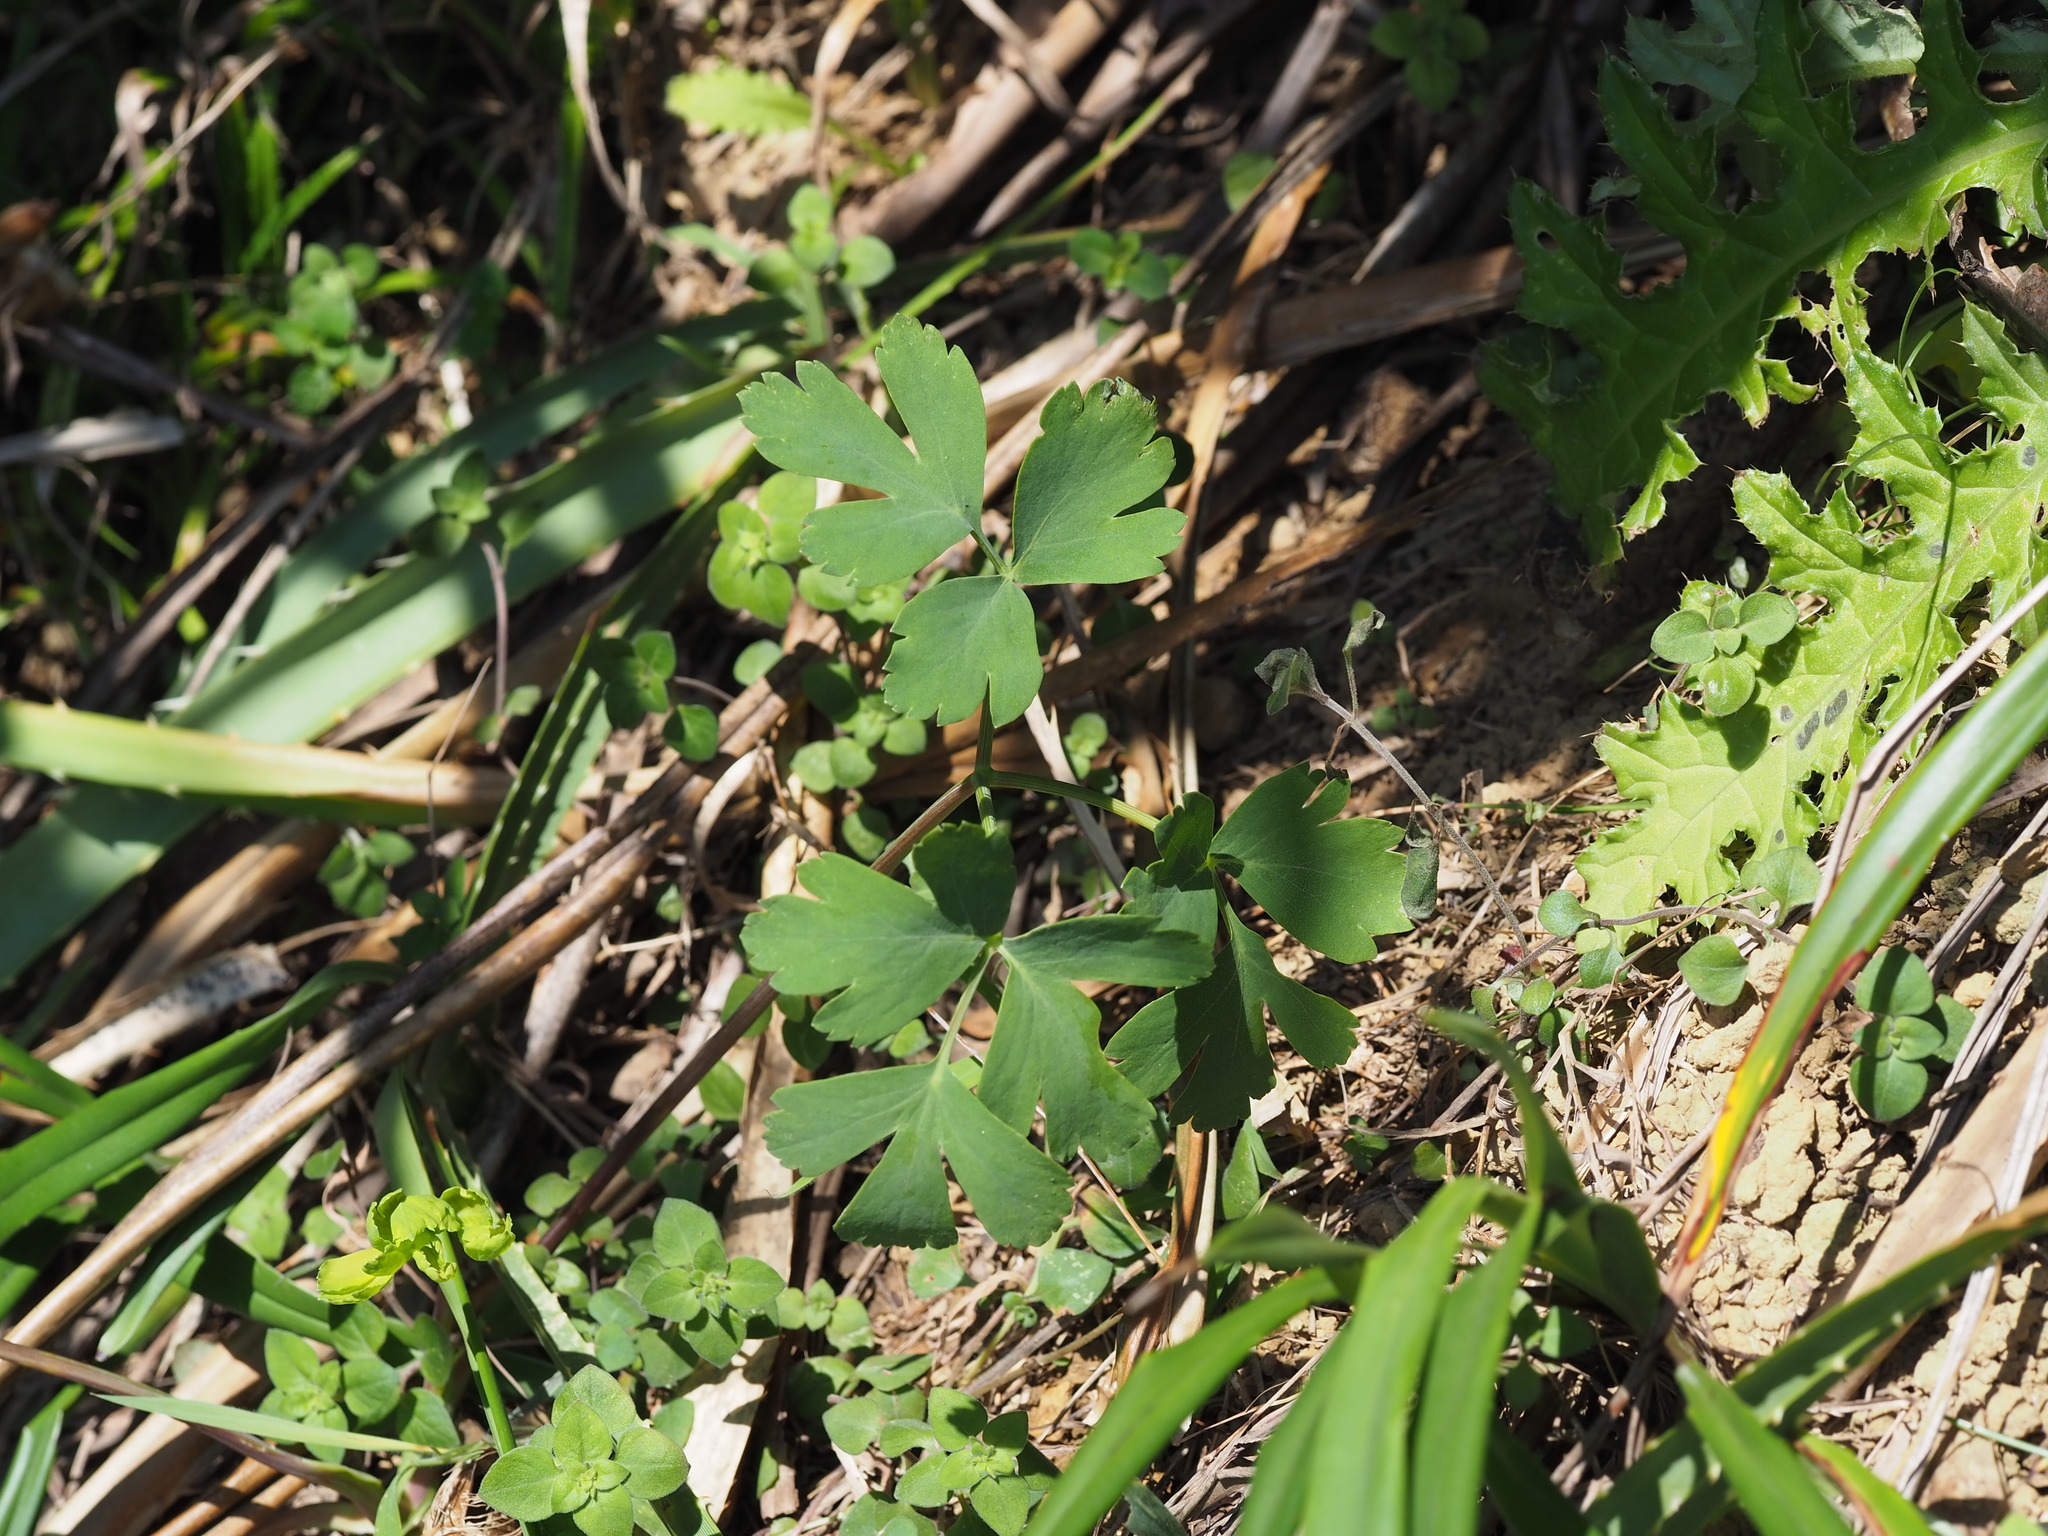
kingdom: Plantae
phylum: Tracheophyta
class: Magnoliopsida
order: Apiales
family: Apiaceae
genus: Peucedanum
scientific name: Peucedanum japonicum
